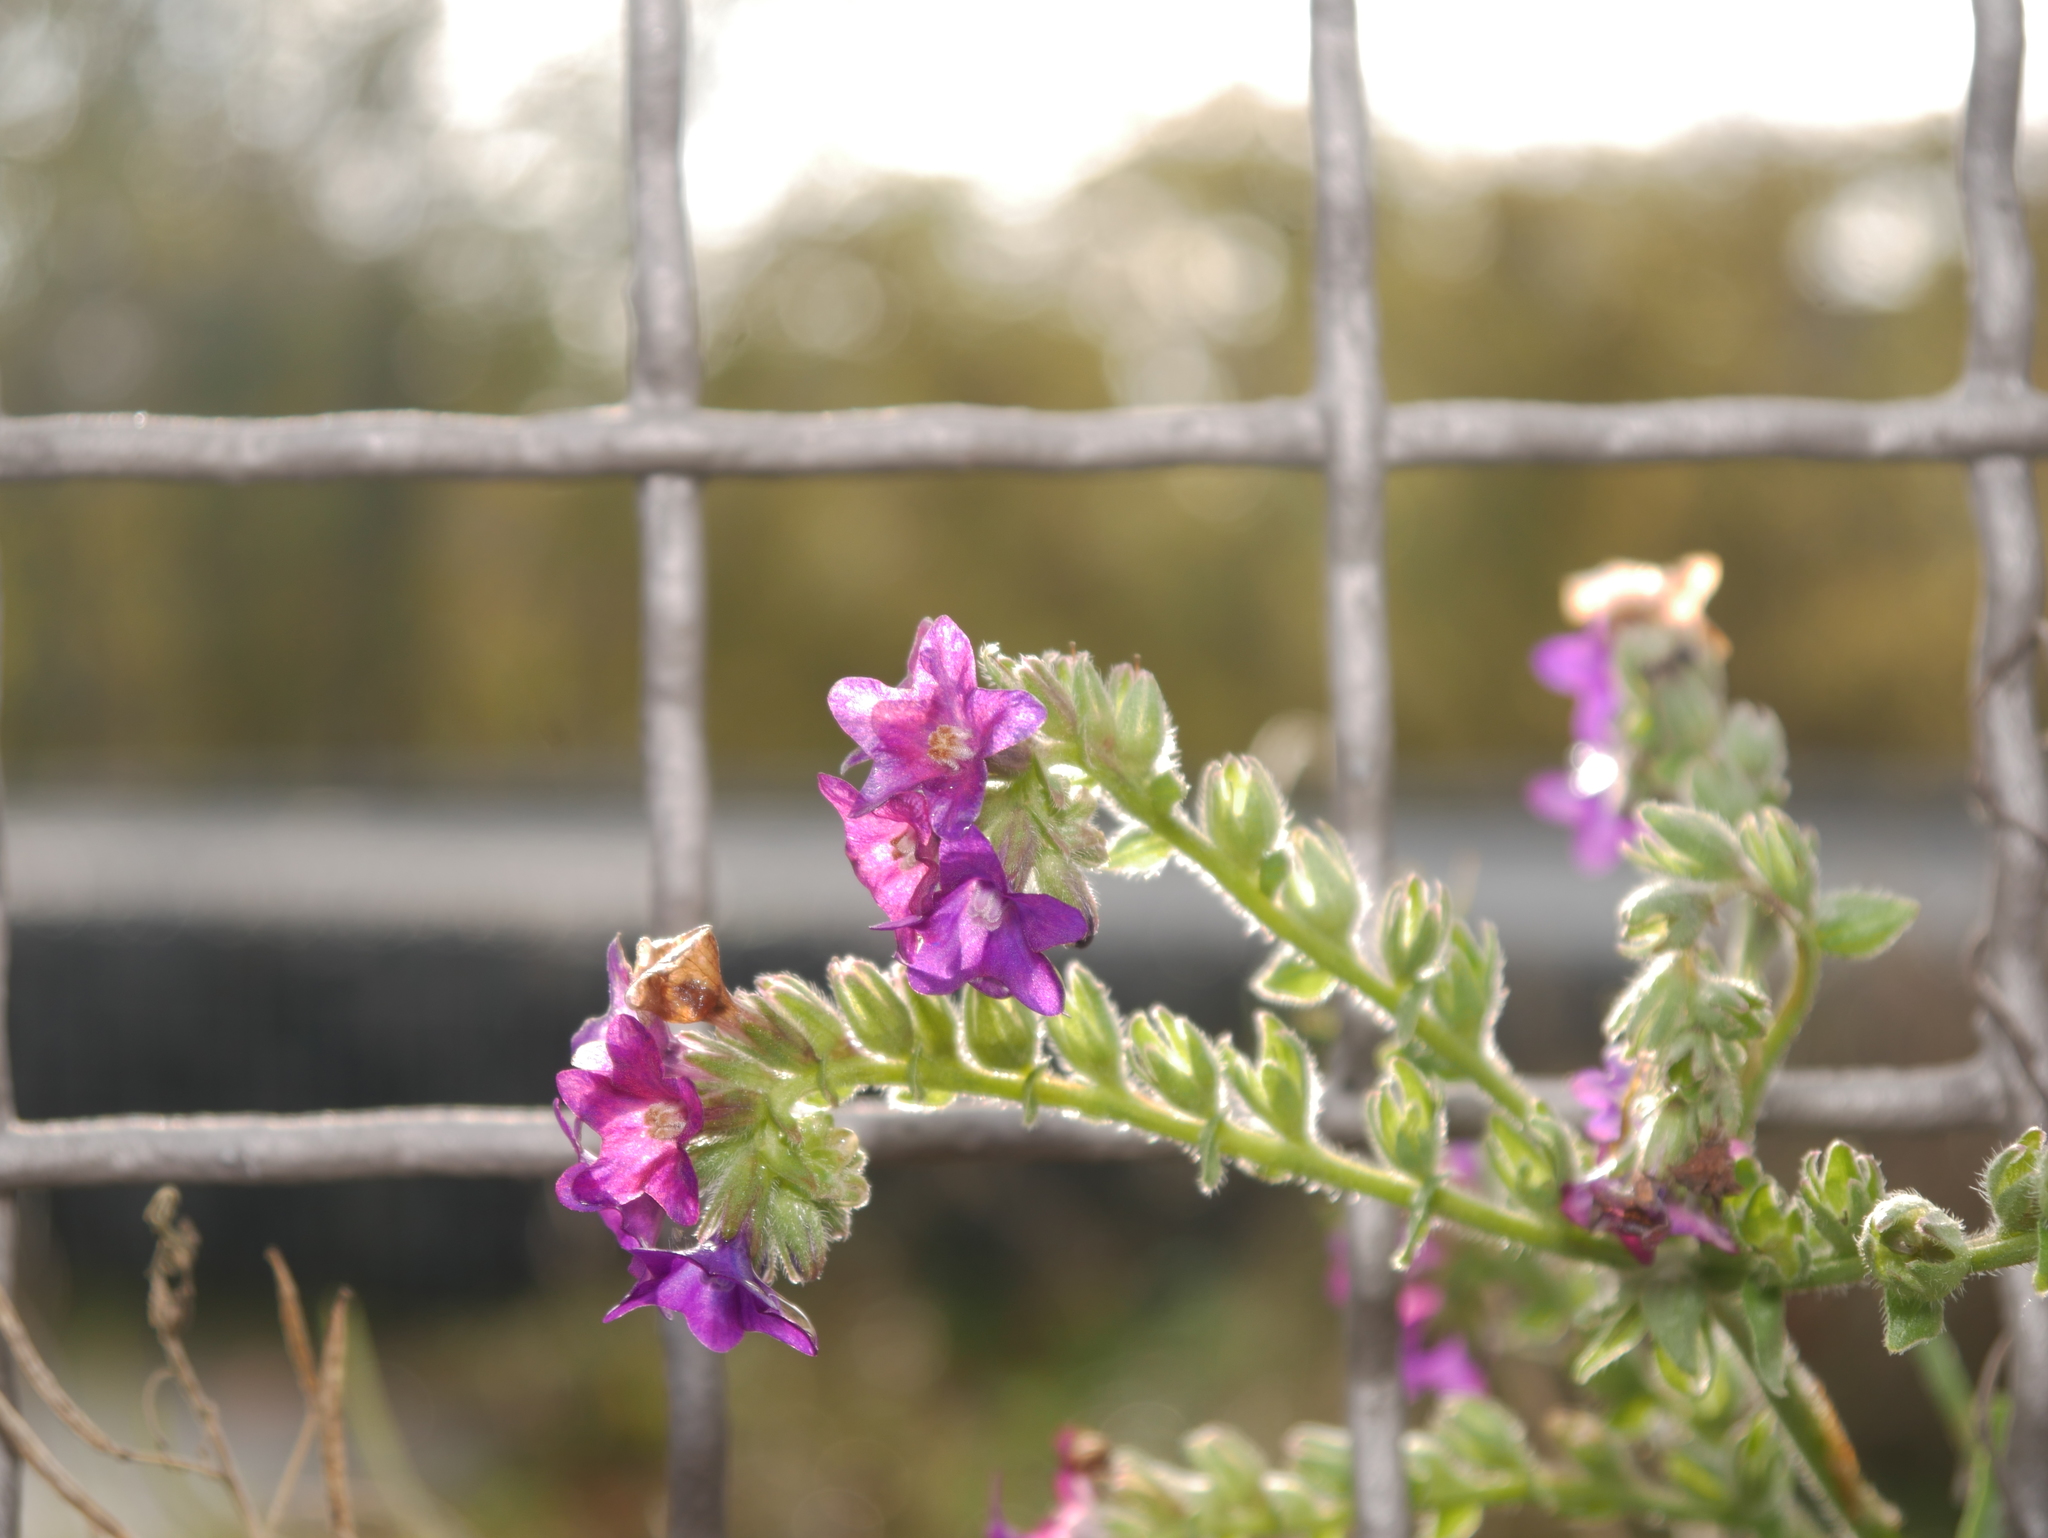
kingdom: Plantae
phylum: Tracheophyta
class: Magnoliopsida
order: Boraginales
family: Boraginaceae
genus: Anchusa
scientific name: Anchusa officinalis
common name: Alkanet
